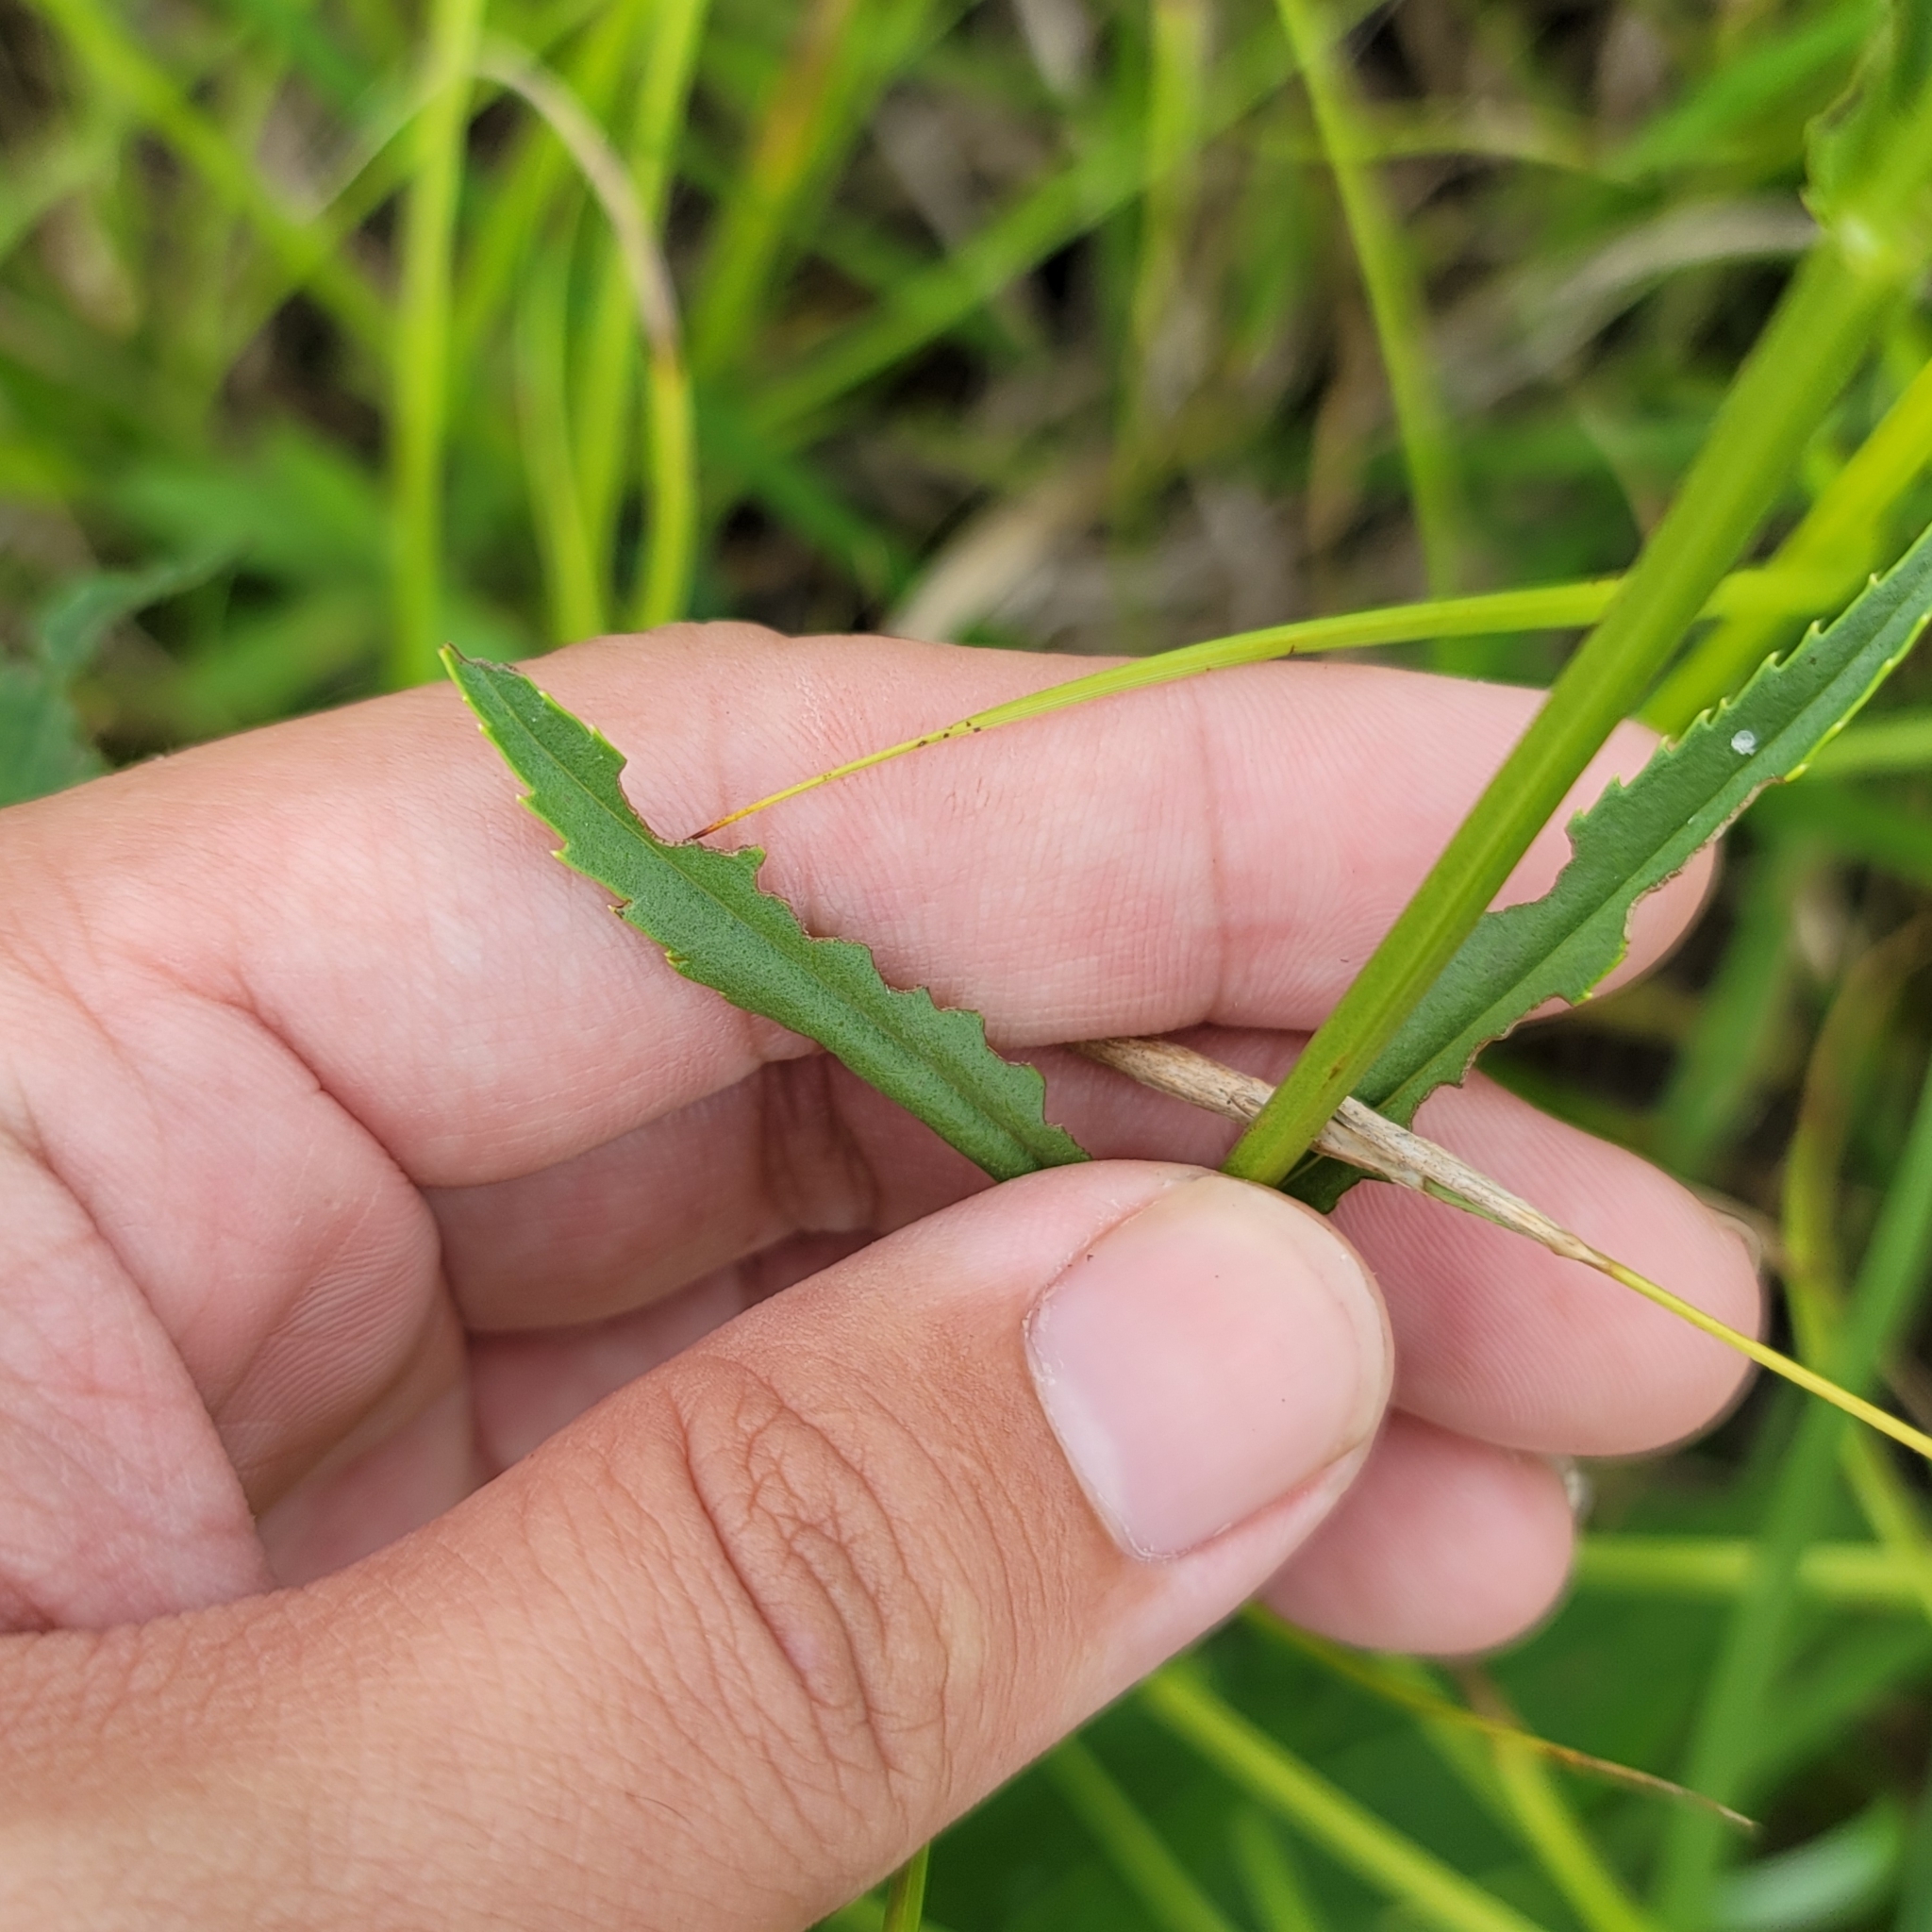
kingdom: Plantae
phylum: Tracheophyta
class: Magnoliopsida
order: Lamiales
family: Lamiaceae
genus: Physostegia
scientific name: Physostegia angustifolia
